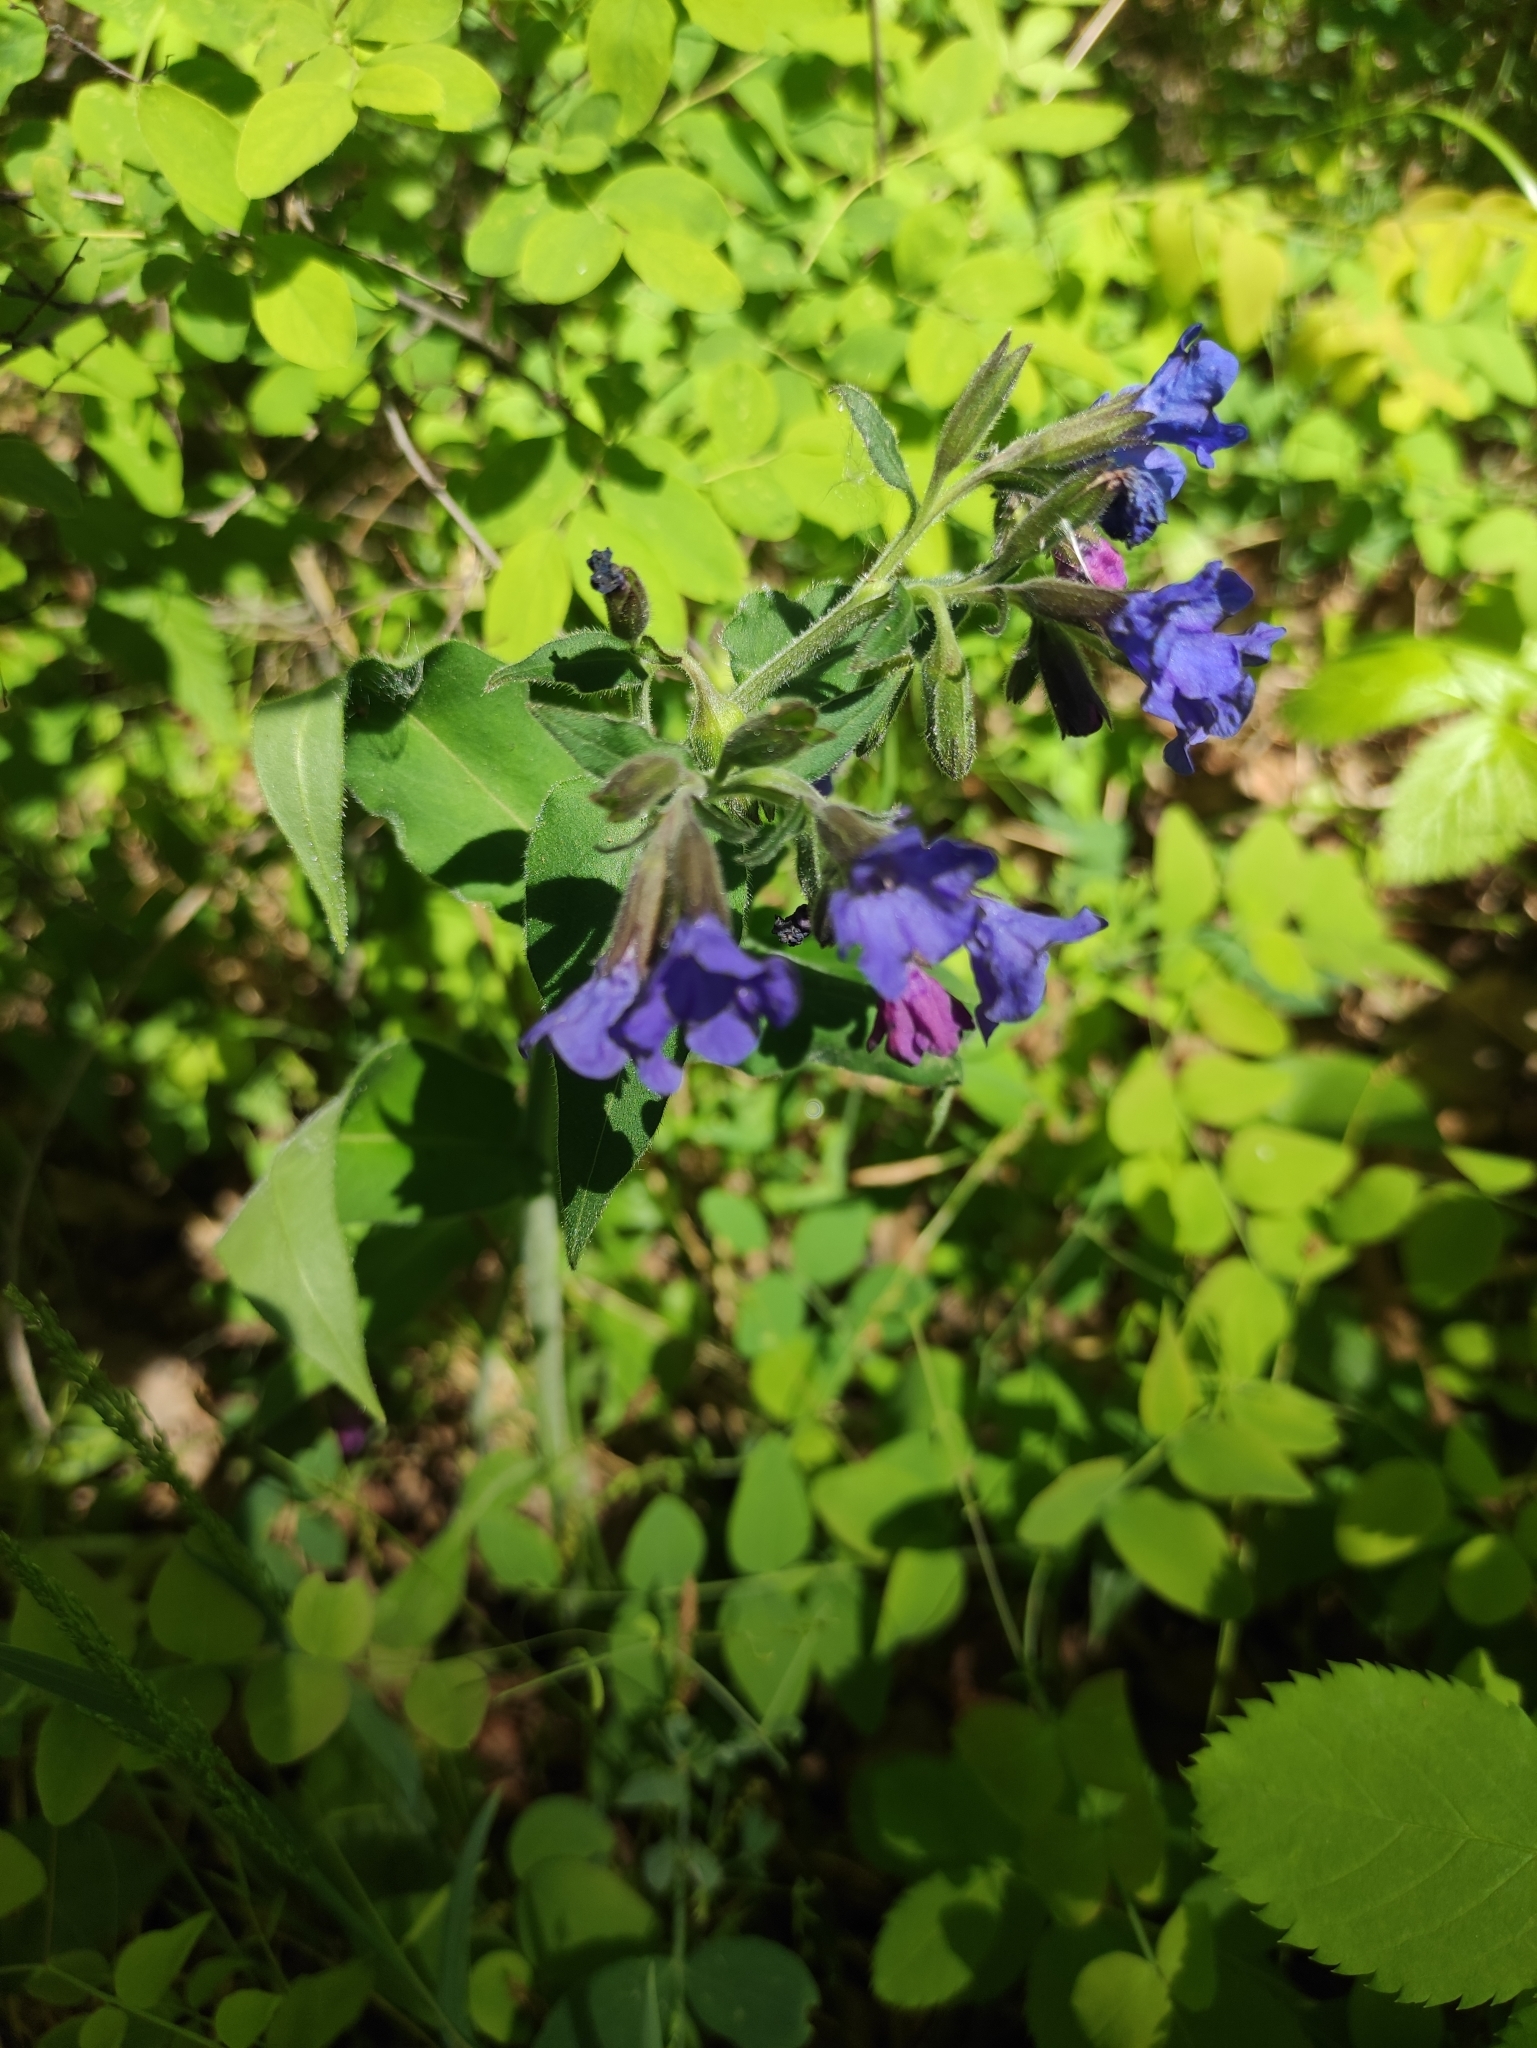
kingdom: Plantae
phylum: Tracheophyta
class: Magnoliopsida
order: Boraginales
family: Boraginaceae
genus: Pulmonaria
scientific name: Pulmonaria mollis
